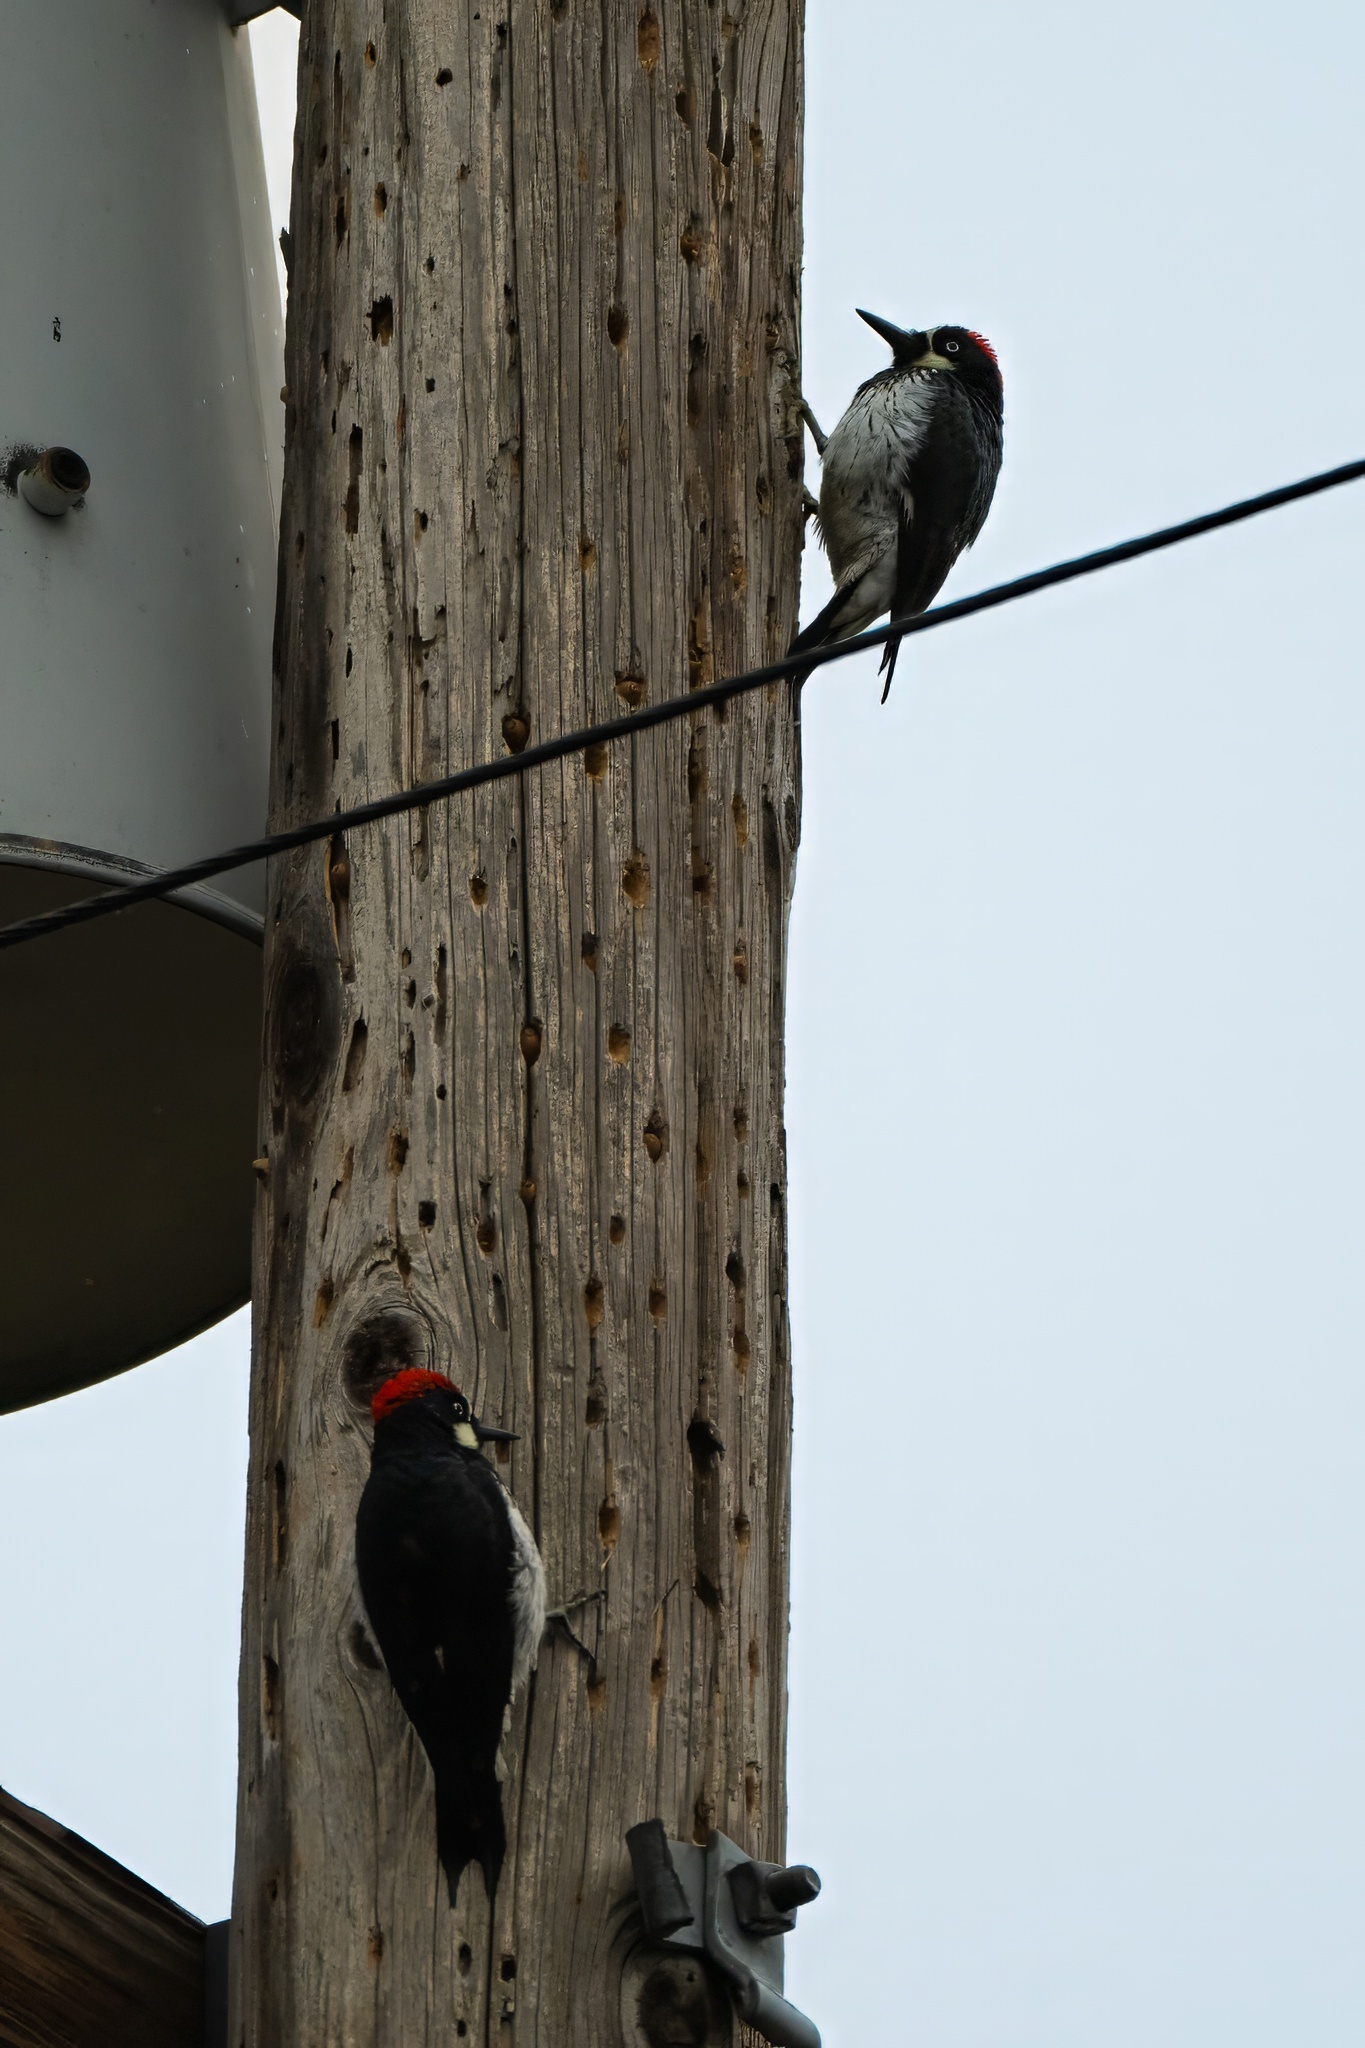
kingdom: Animalia
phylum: Chordata
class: Aves
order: Piciformes
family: Picidae
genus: Melanerpes
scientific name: Melanerpes formicivorus
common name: Acorn woodpecker
